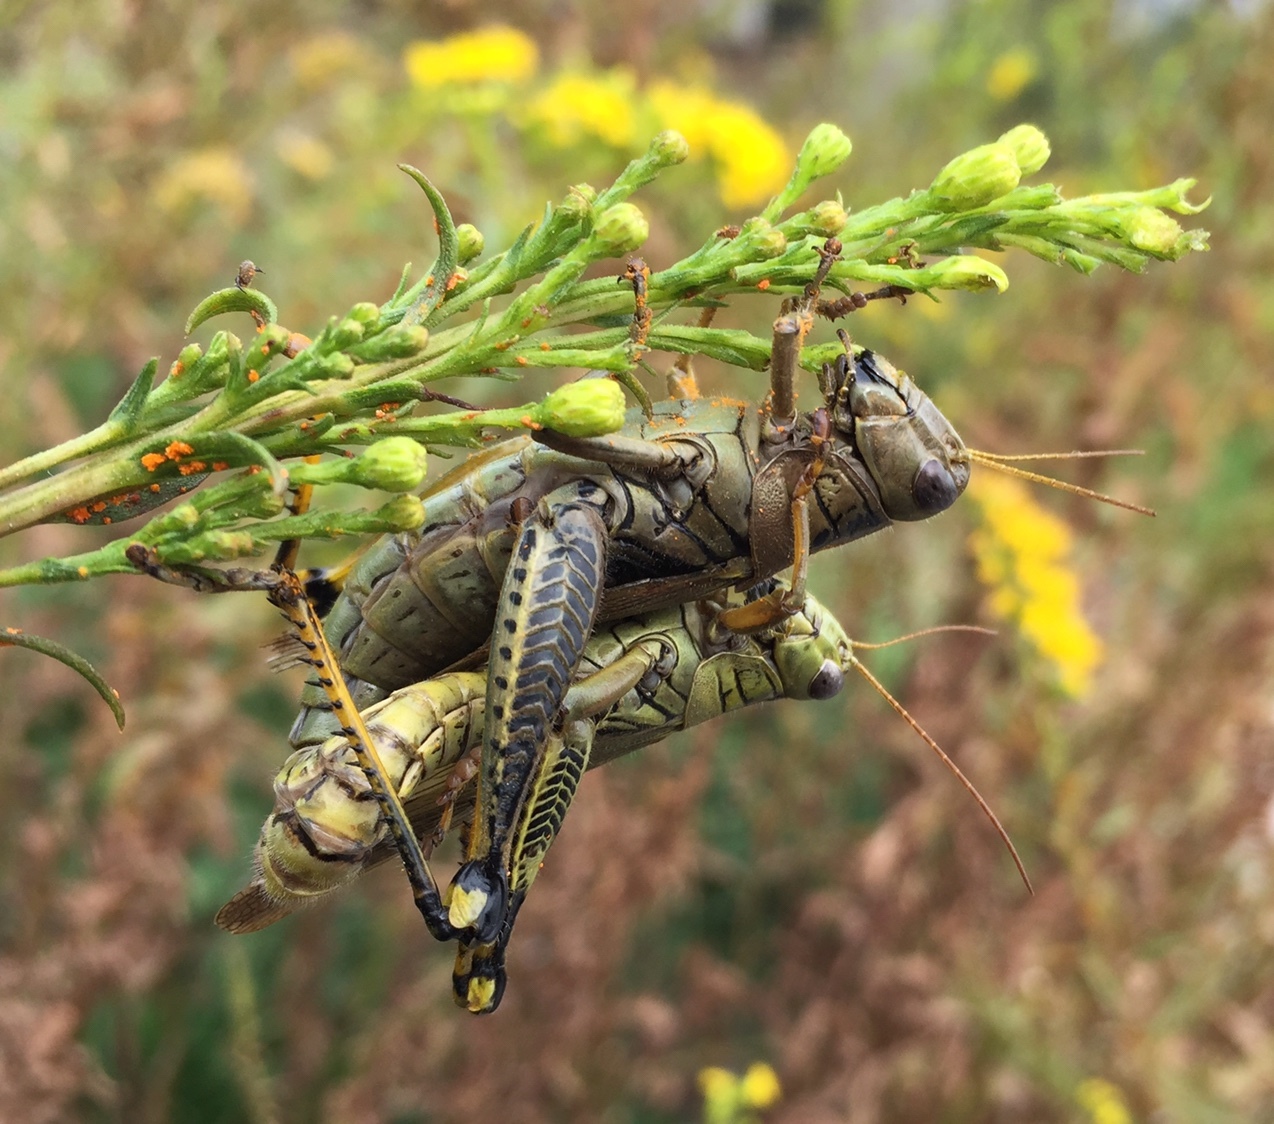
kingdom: Animalia
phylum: Arthropoda
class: Insecta
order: Orthoptera
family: Acrididae
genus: Melanoplus
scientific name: Melanoplus differentialis
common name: Differential grasshopper
